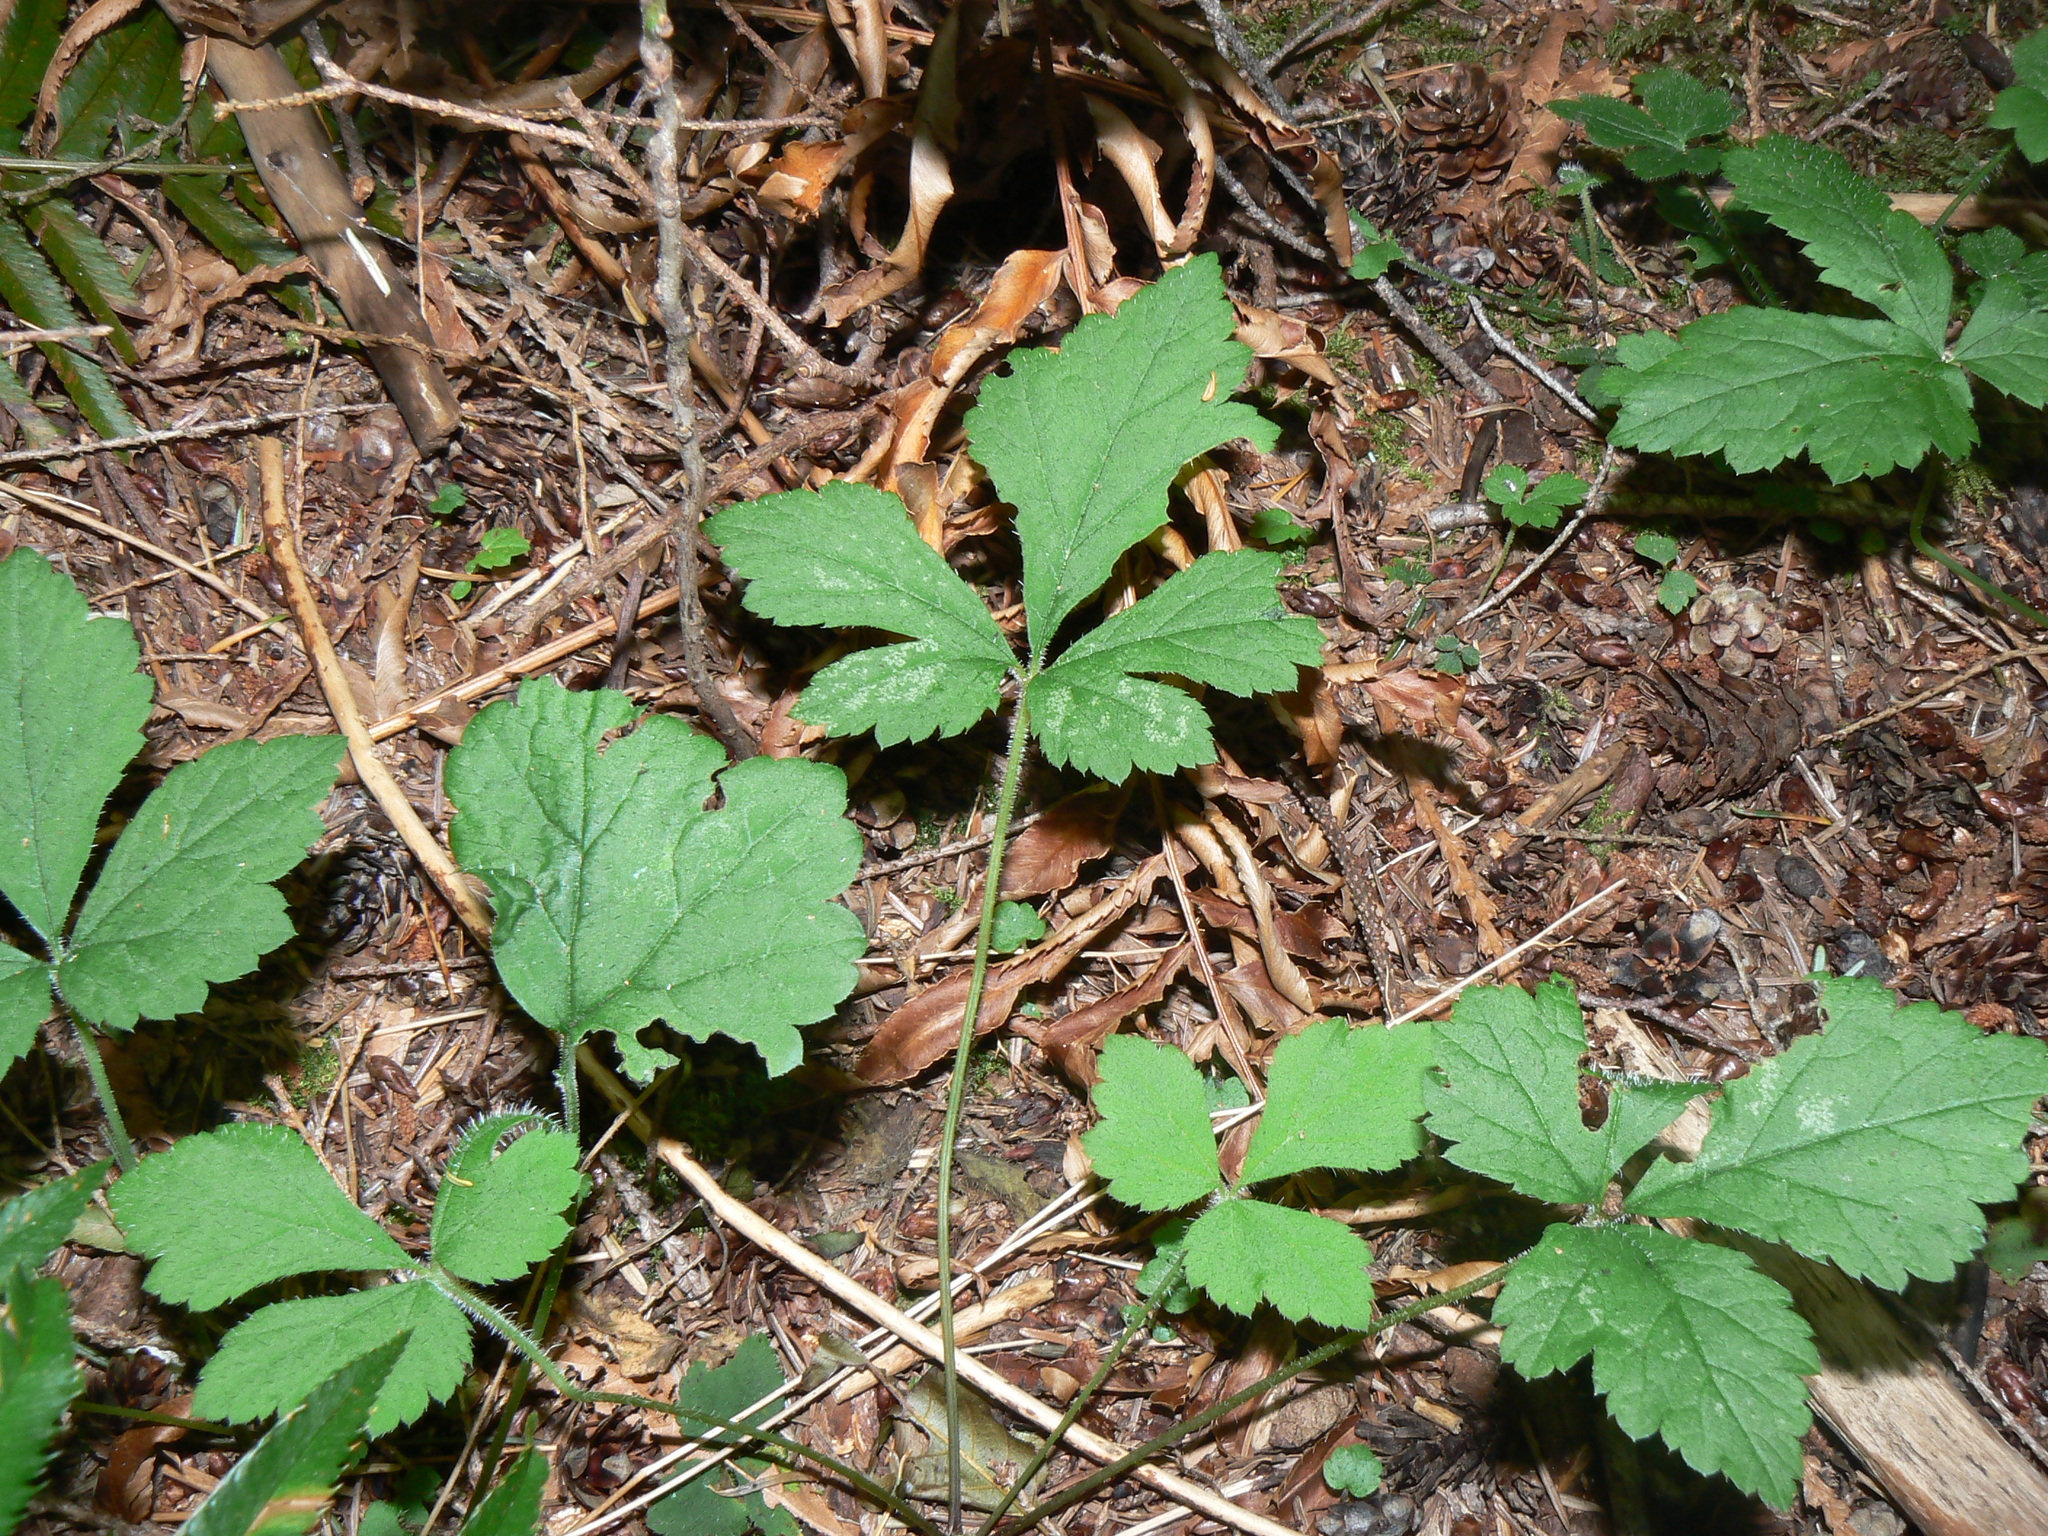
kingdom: Plantae
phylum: Tracheophyta
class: Magnoliopsida
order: Saxifragales
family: Saxifragaceae
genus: Tiarella
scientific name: Tiarella trifoliata
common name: Sugar-scoop
